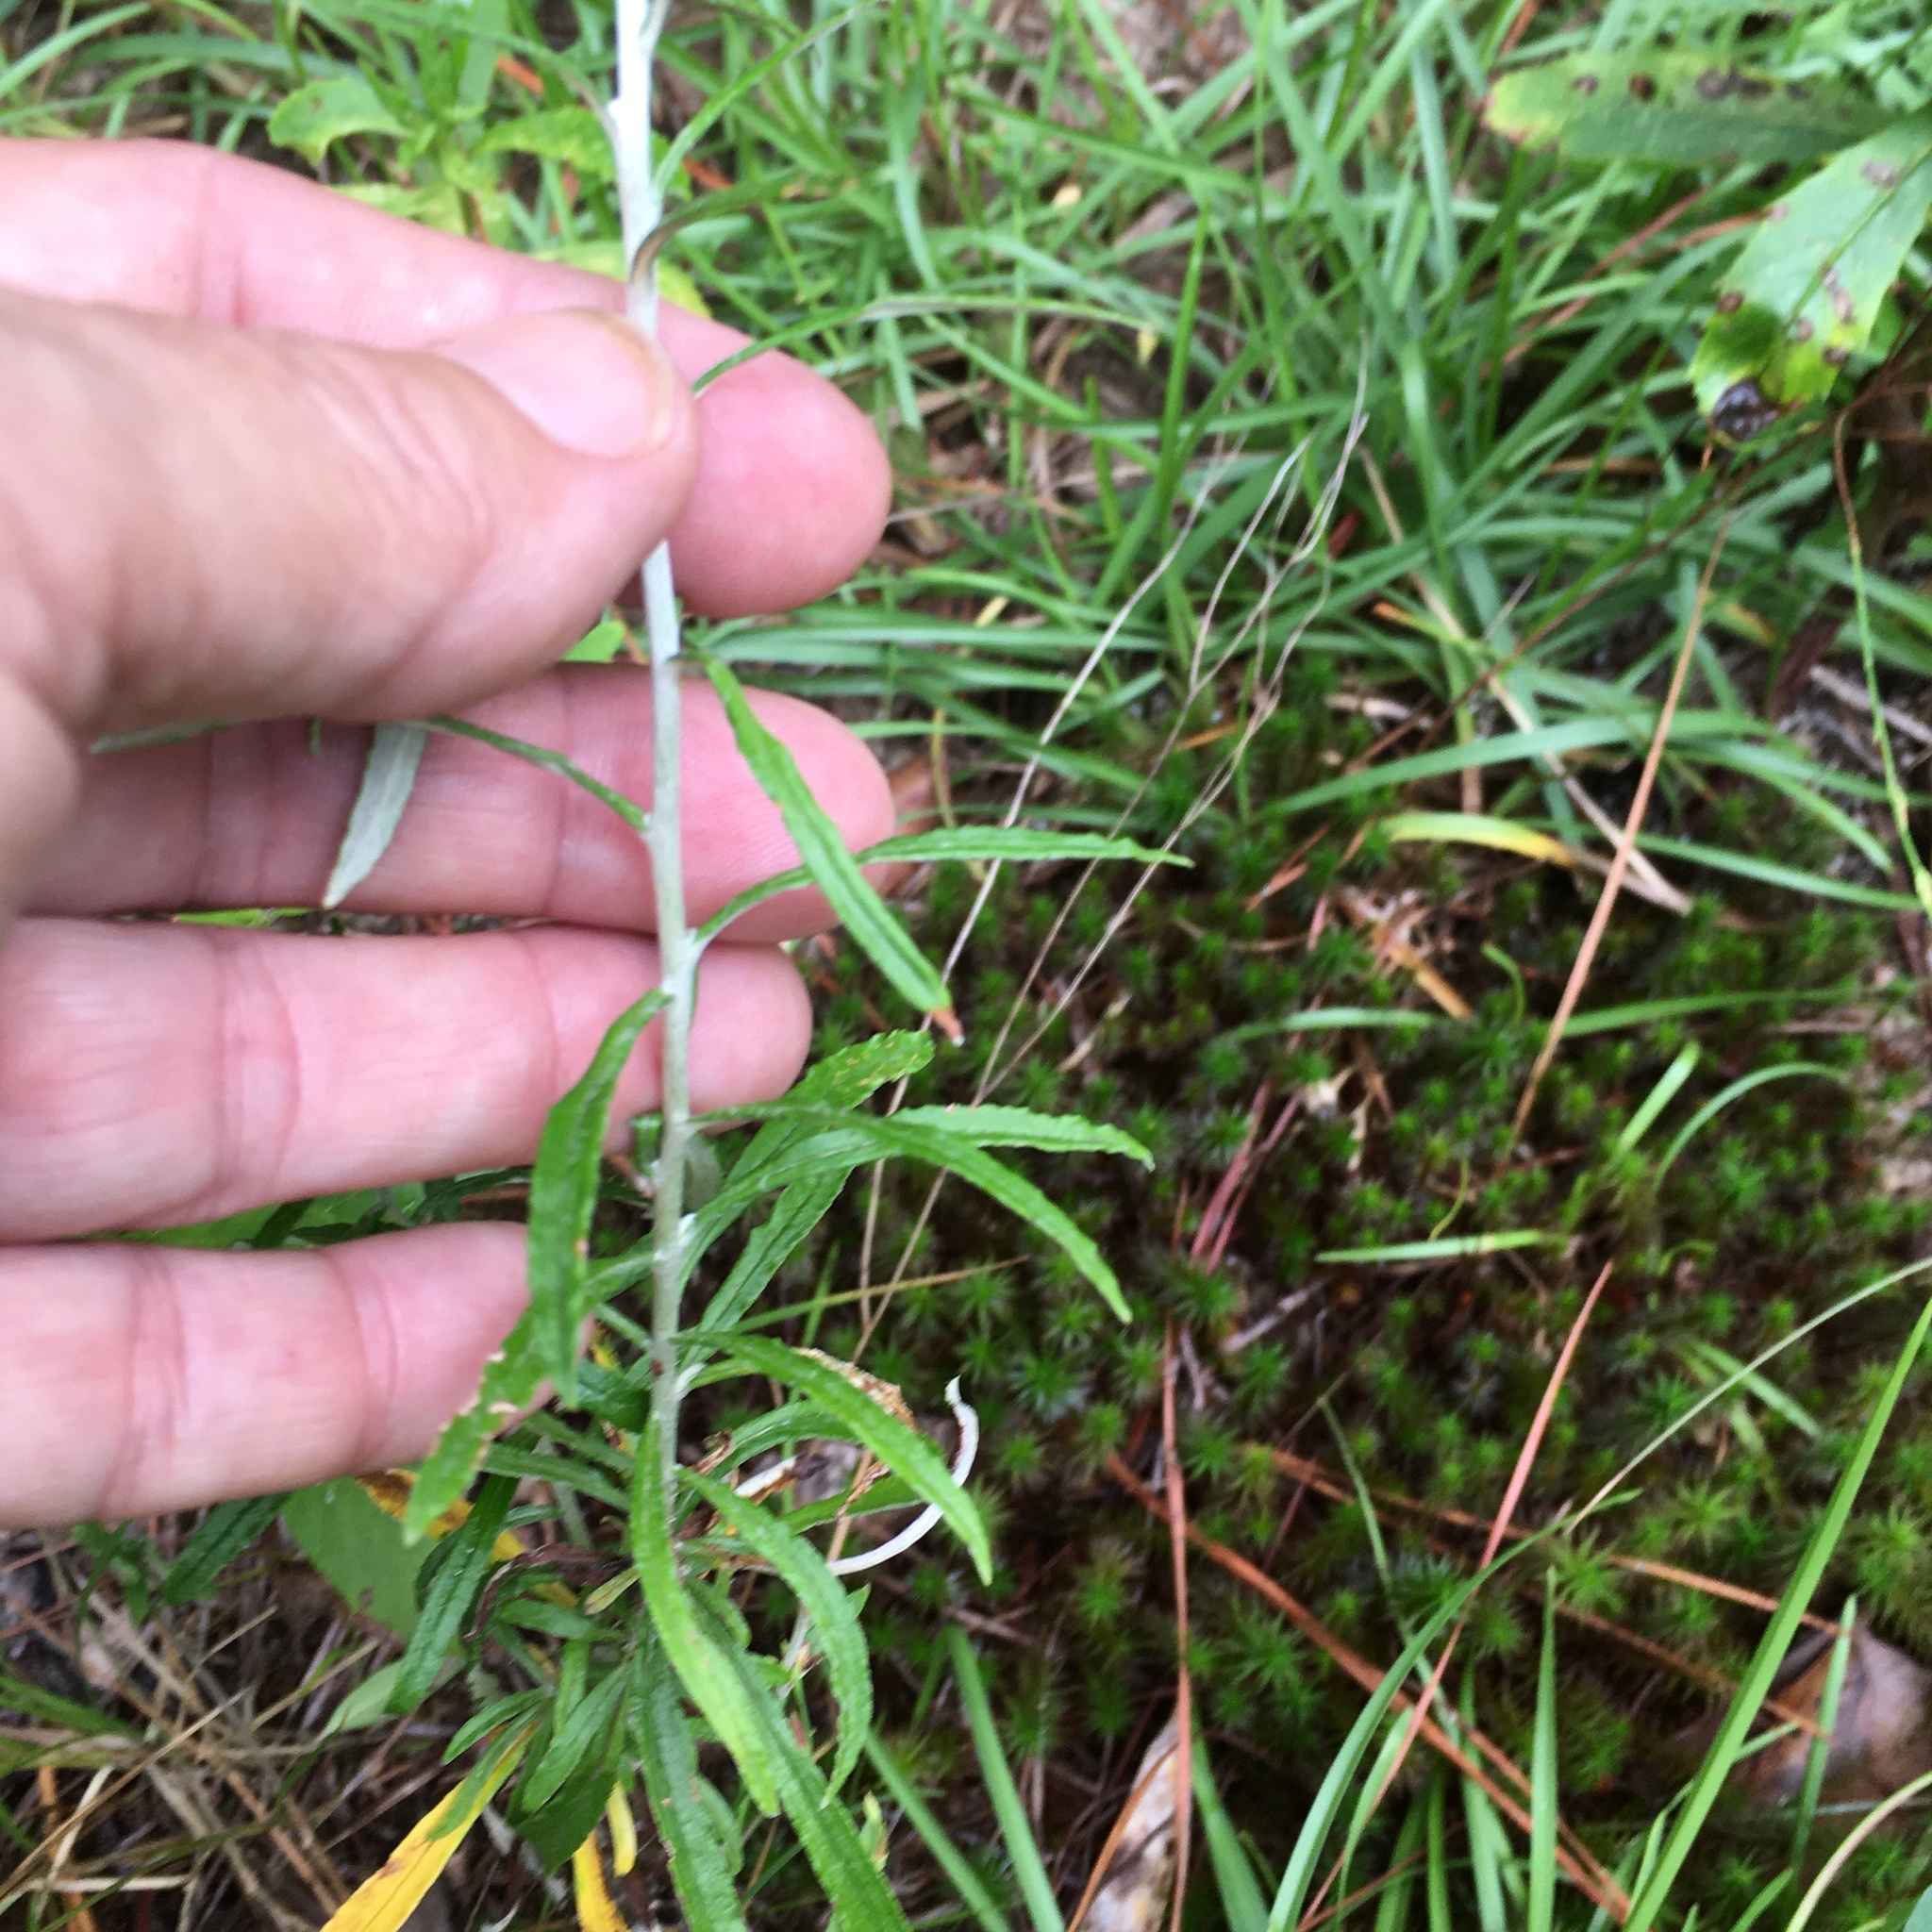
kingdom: Plantae
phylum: Tracheophyta
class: Magnoliopsida
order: Asterales
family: Asteraceae
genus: Pseudognaphalium
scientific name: Pseudognaphalium obtusifolium
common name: Eastern rabbit-tobacco
